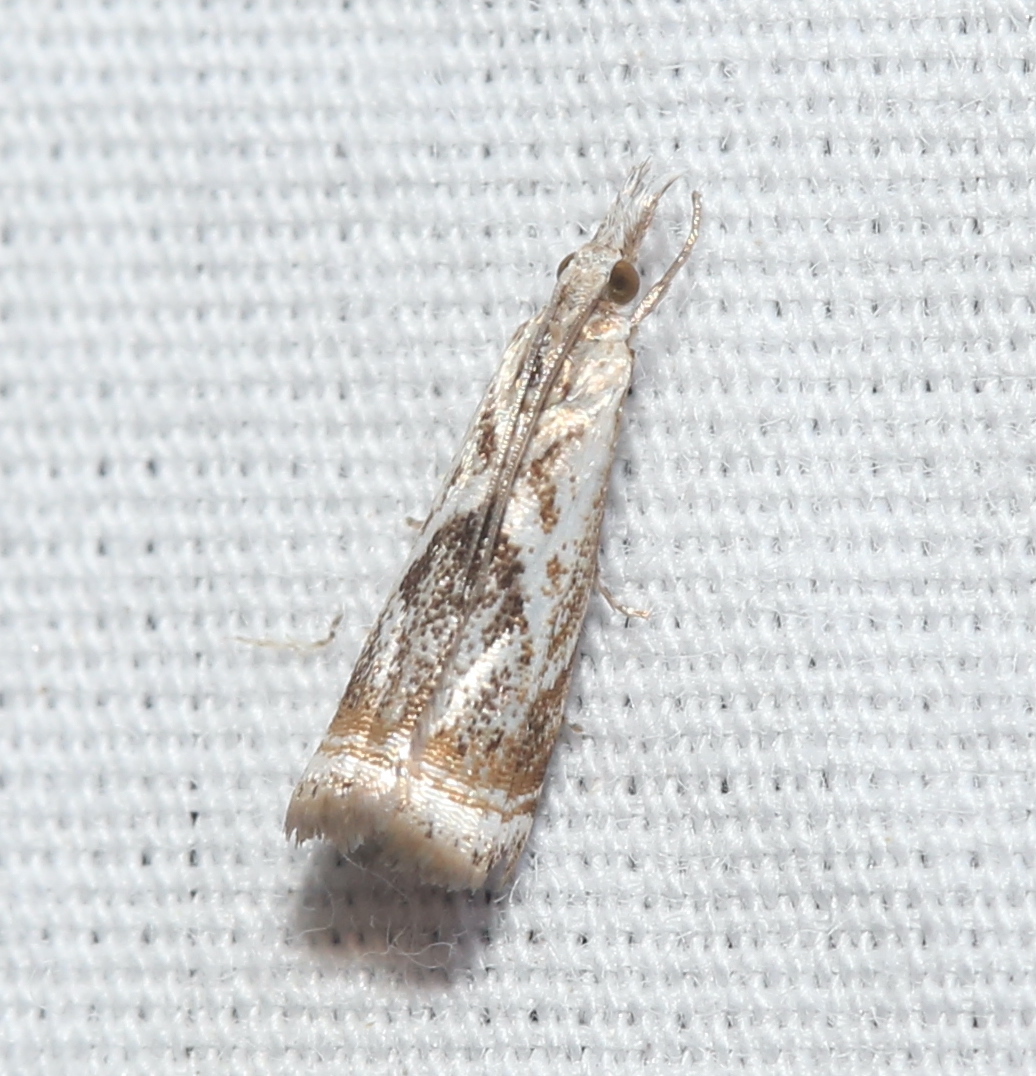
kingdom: Animalia
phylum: Arthropoda
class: Insecta
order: Lepidoptera
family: Crambidae
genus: Microcrambus
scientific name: Microcrambus elegans
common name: Elegant grass-veneer
